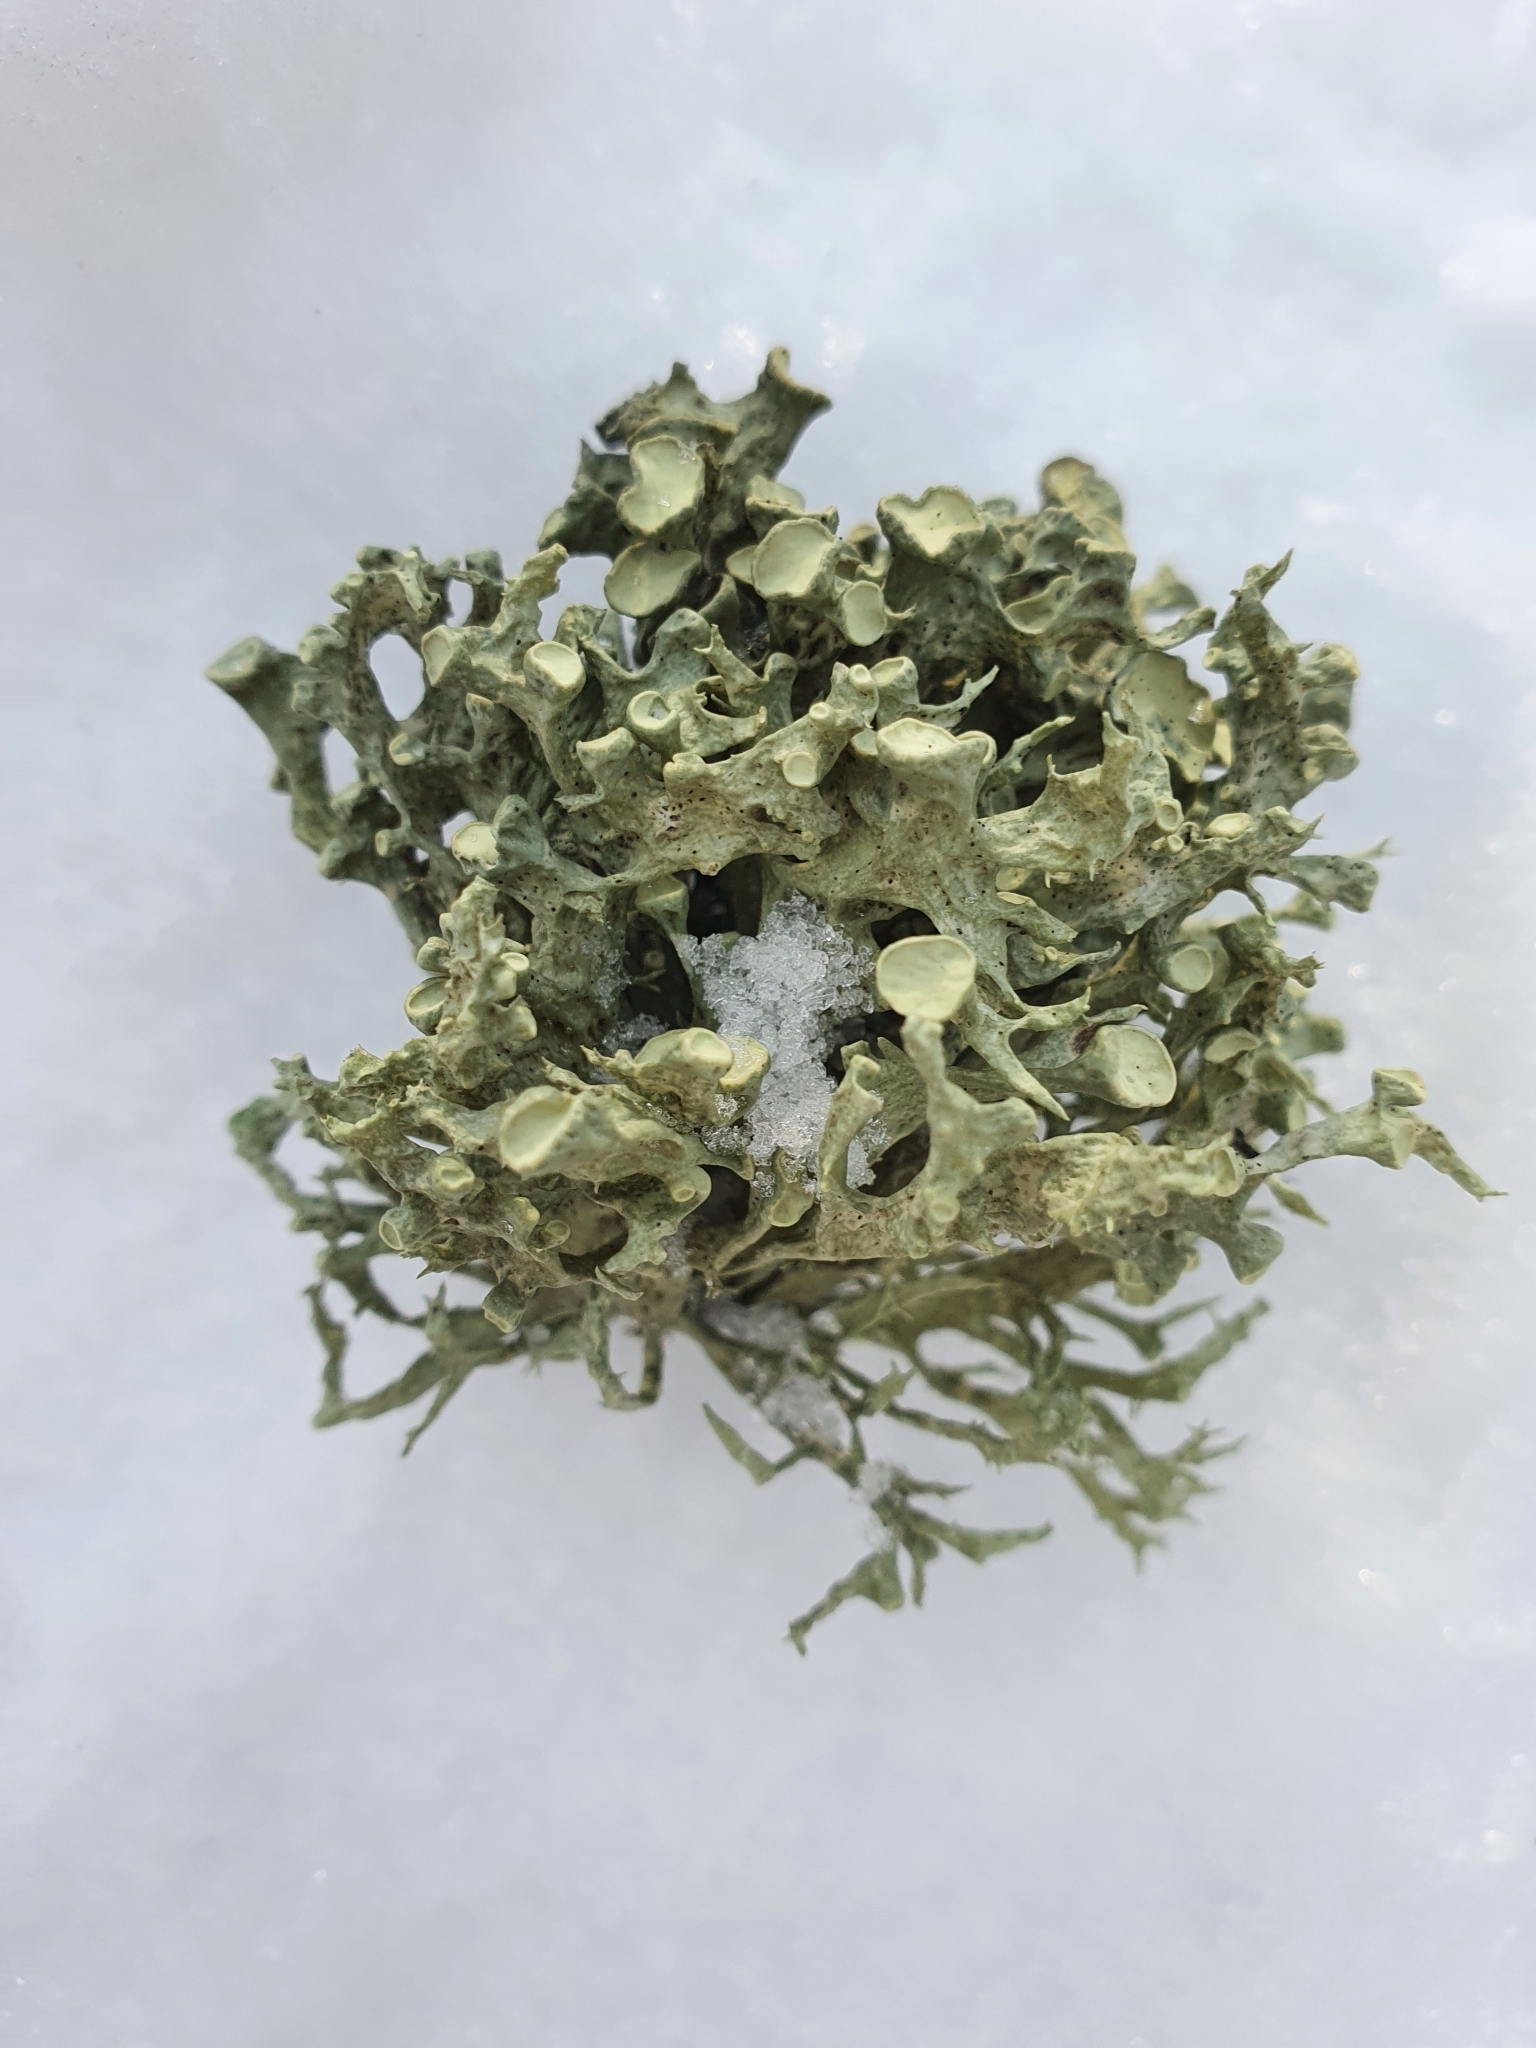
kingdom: Fungi
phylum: Ascomycota
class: Lecanoromycetes
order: Lecanorales
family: Ramalinaceae
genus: Ramalina
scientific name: Ramalina fastigiata
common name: Dotted ribbon lichen
